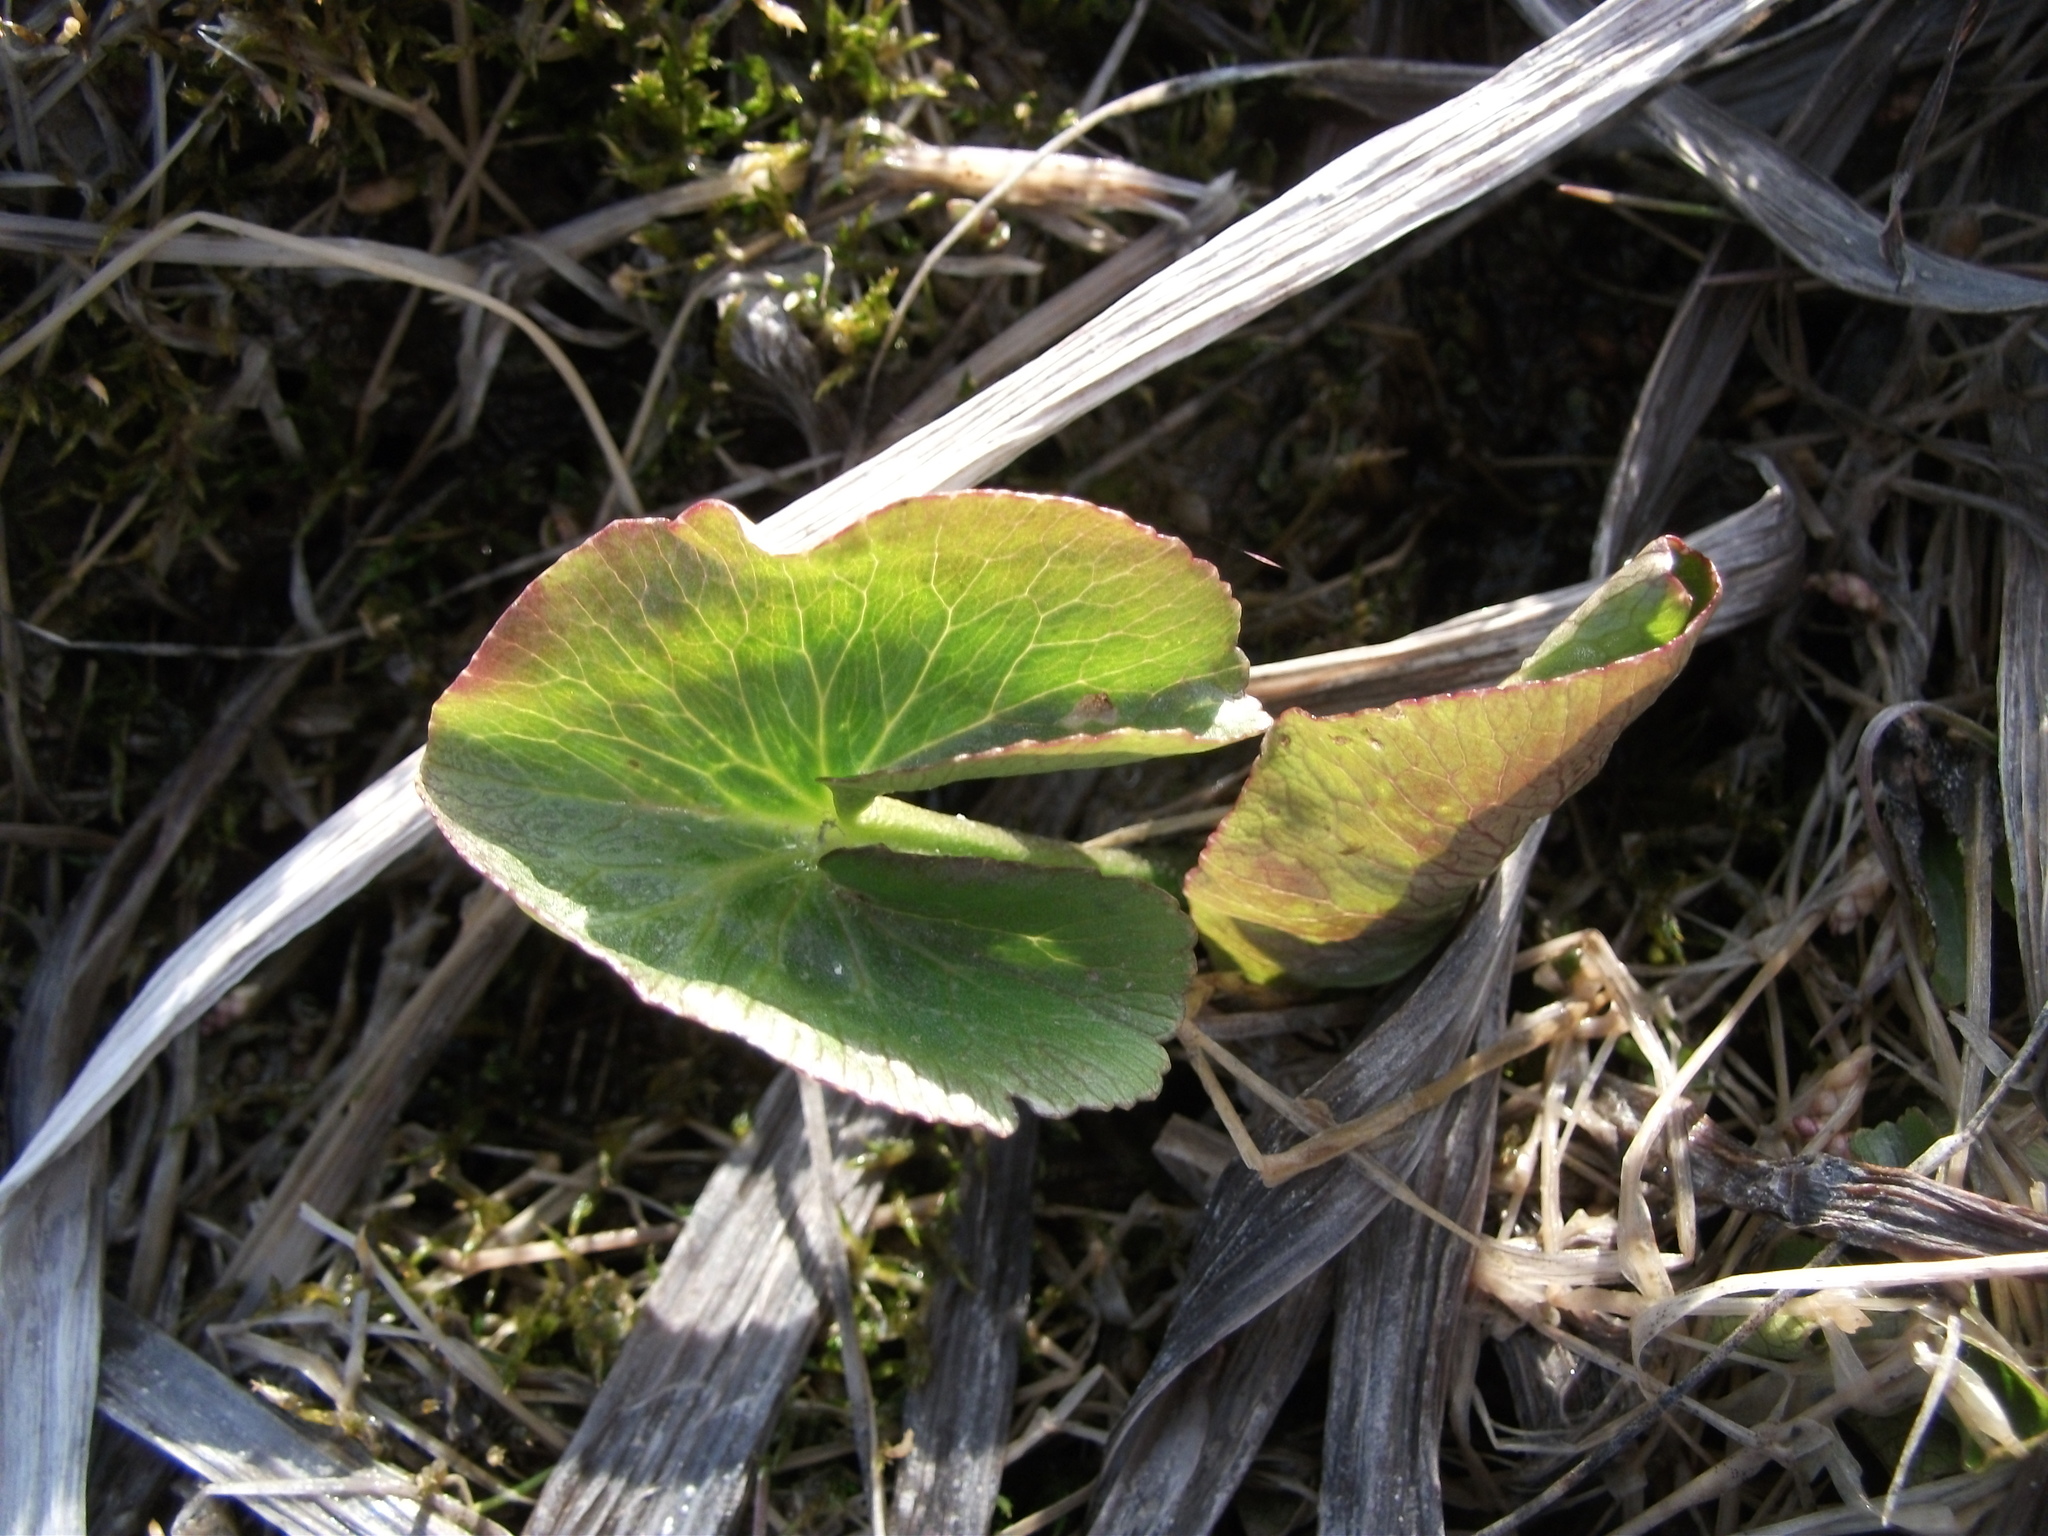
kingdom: Plantae
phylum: Tracheophyta
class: Magnoliopsida
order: Ranunculales
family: Ranunculaceae
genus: Caltha
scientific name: Caltha palustris
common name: Marsh marigold
